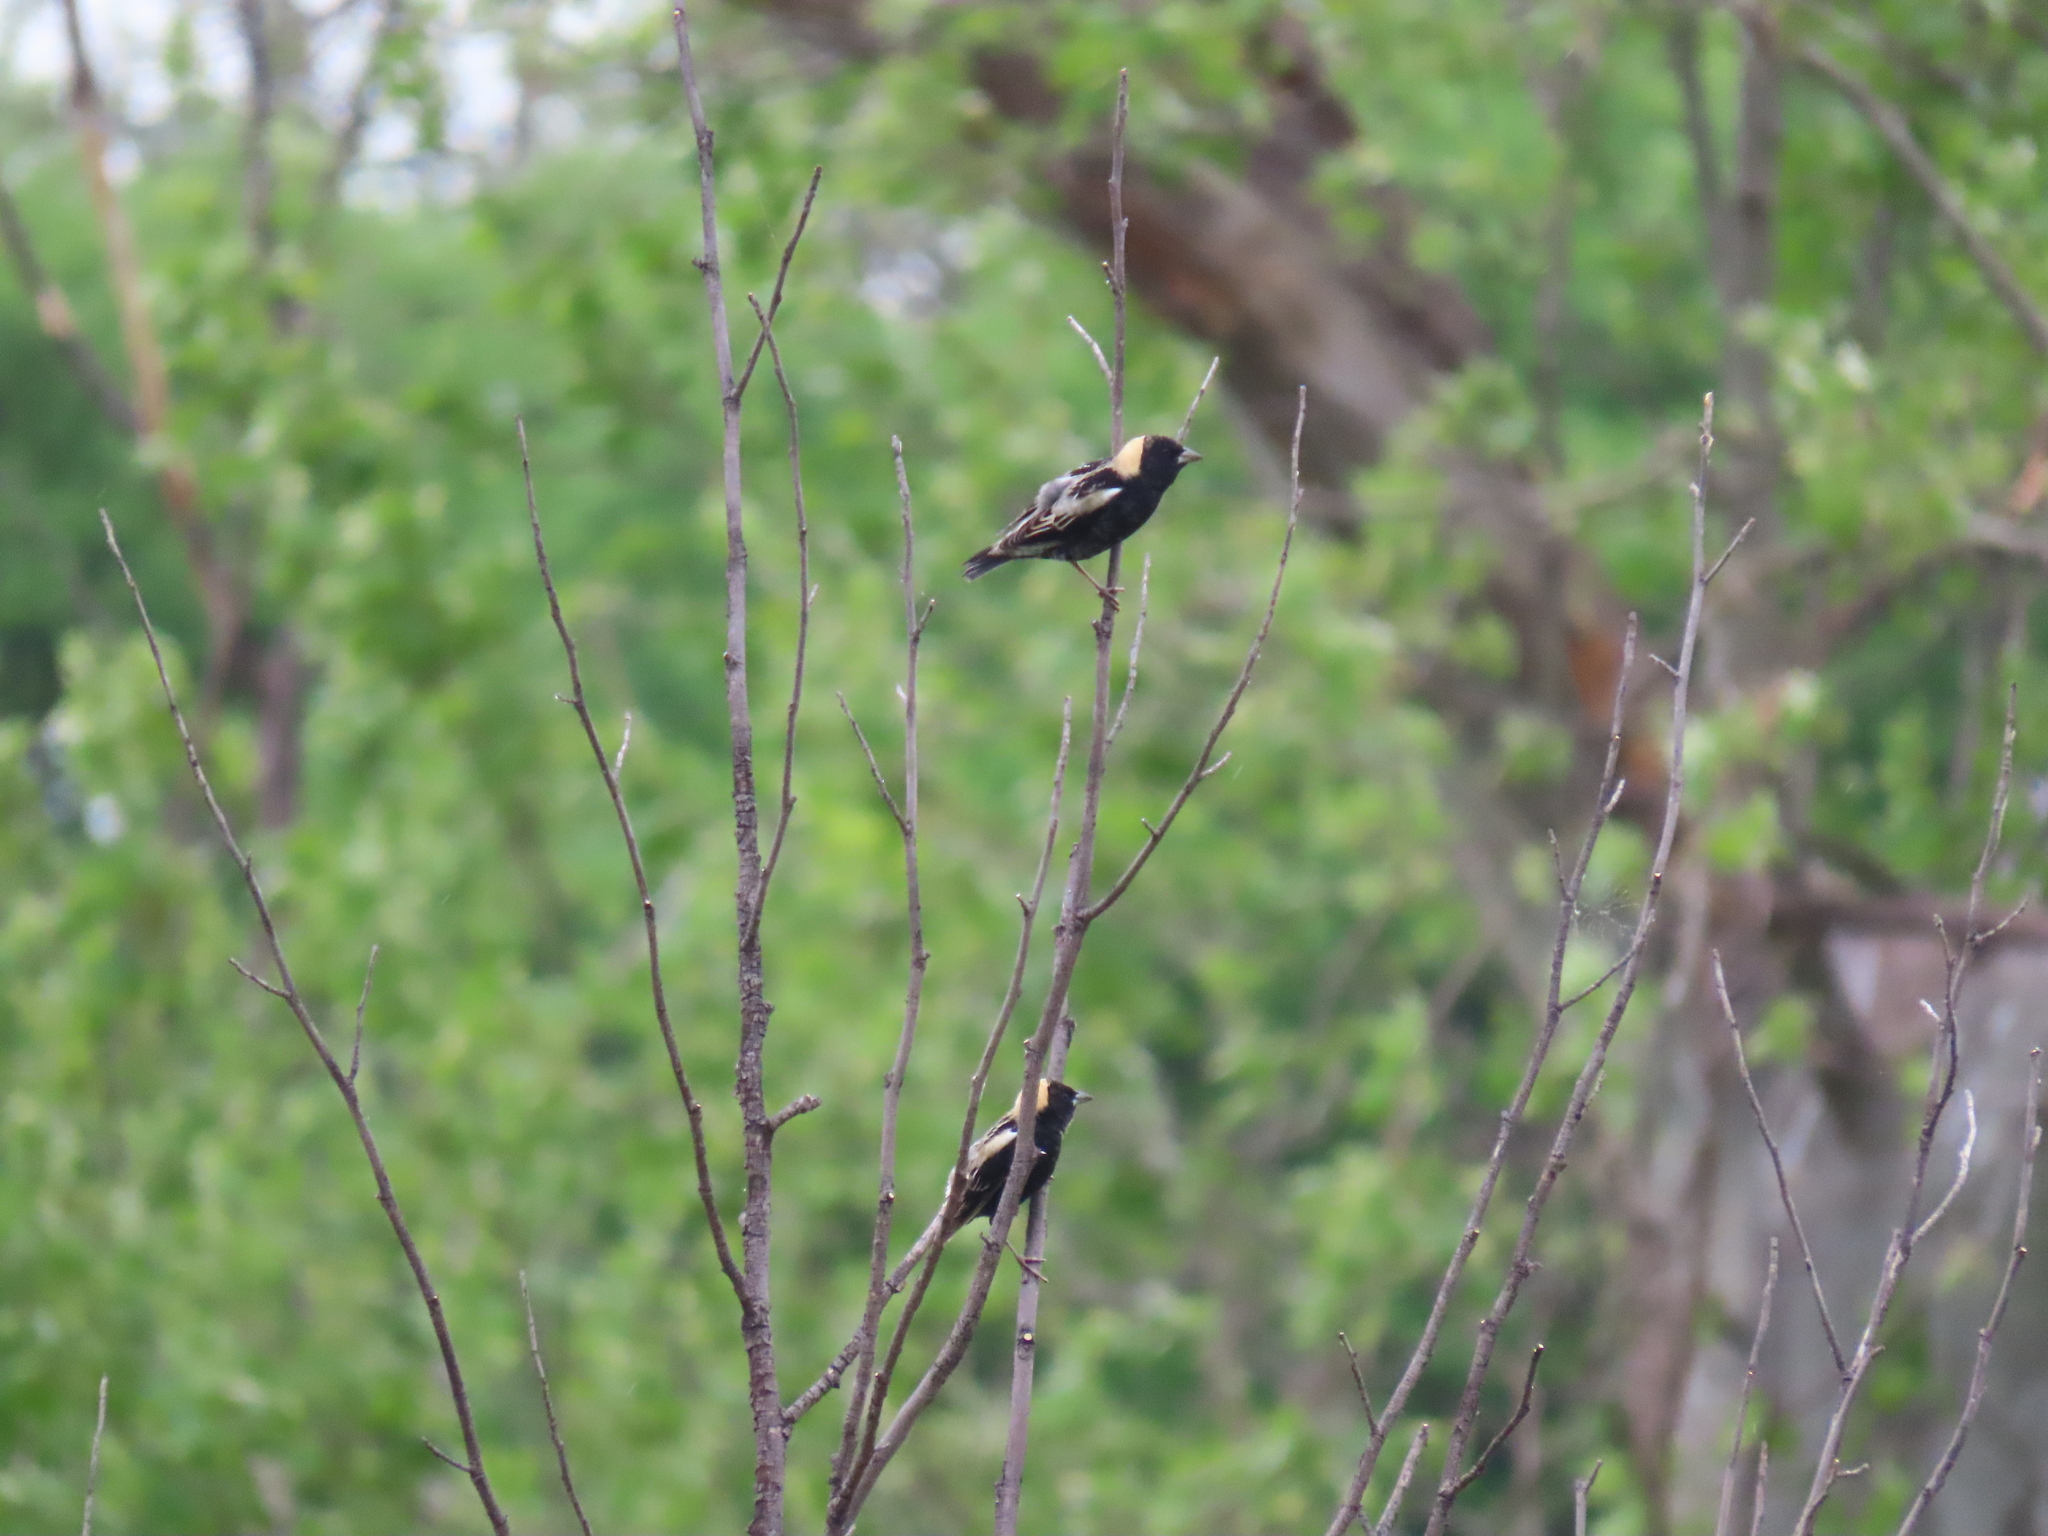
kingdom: Animalia
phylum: Chordata
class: Aves
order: Passeriformes
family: Icteridae
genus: Dolichonyx
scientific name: Dolichonyx oryzivorus
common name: Bobolink
